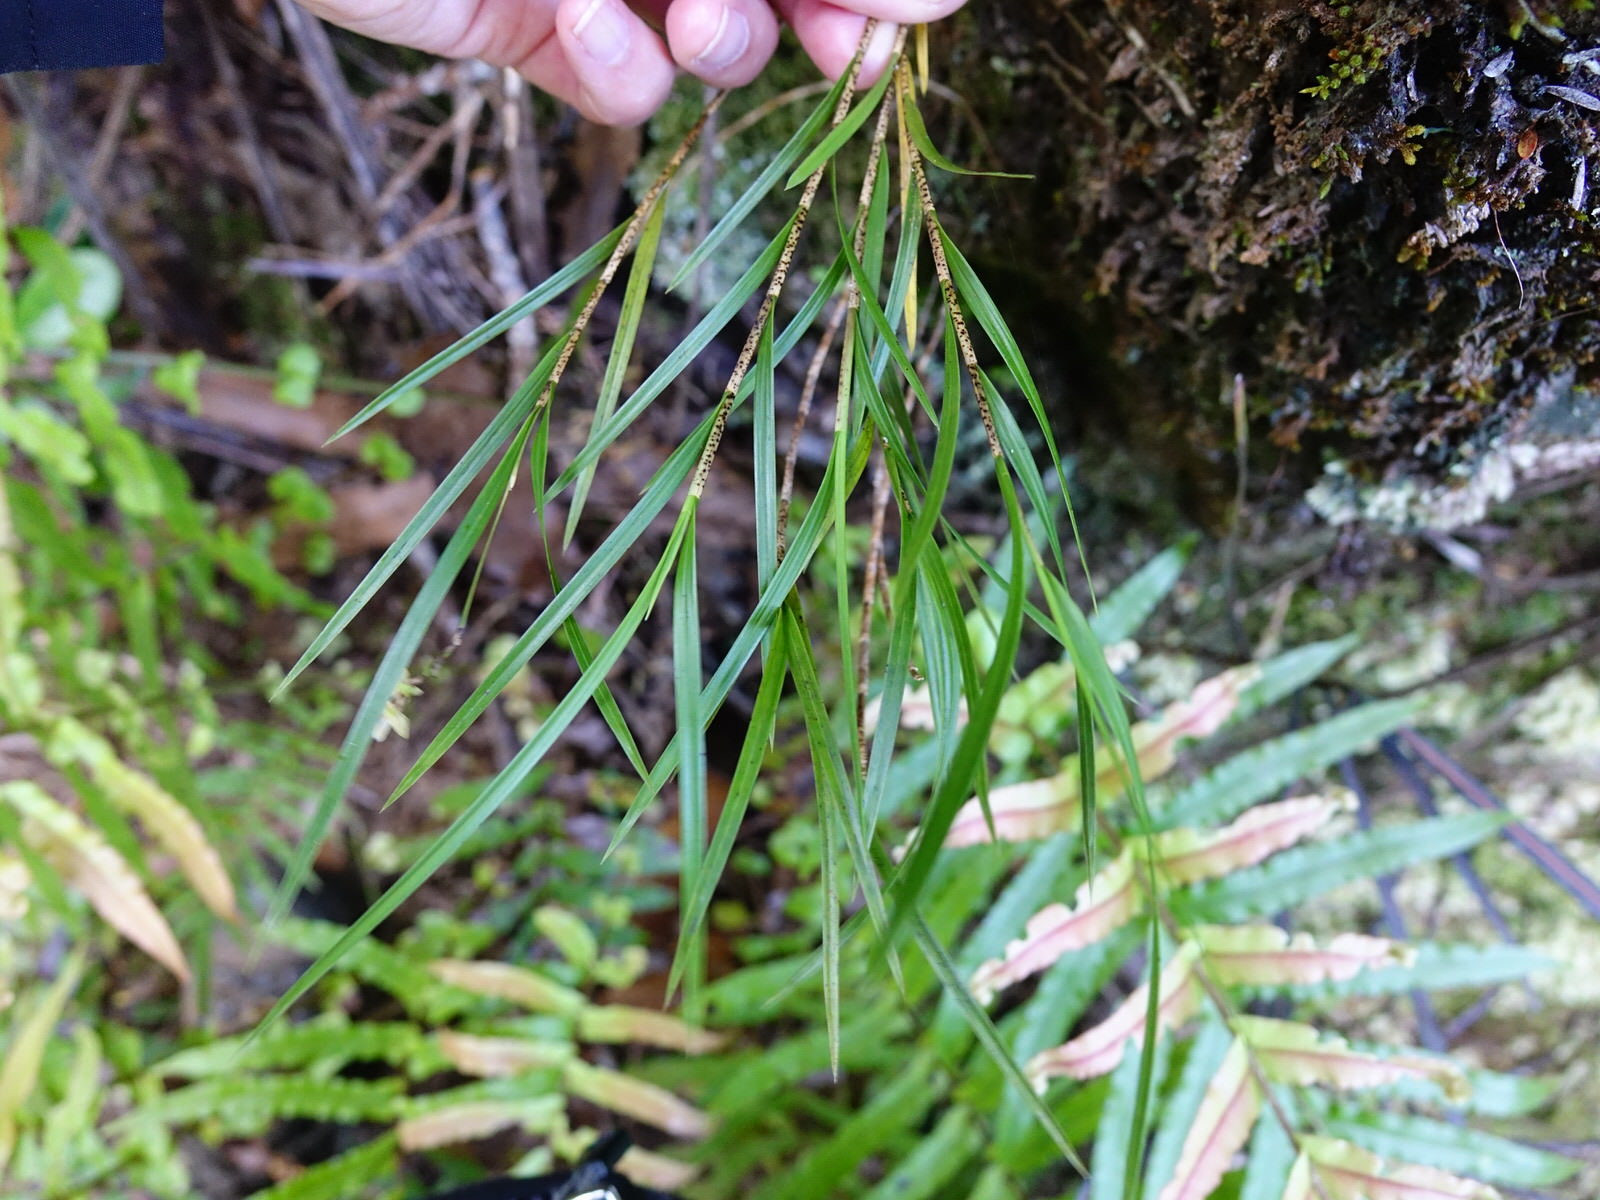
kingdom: Plantae
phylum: Tracheophyta
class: Liliopsida
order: Asparagales
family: Orchidaceae
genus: Earina
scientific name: Earina mucronata
